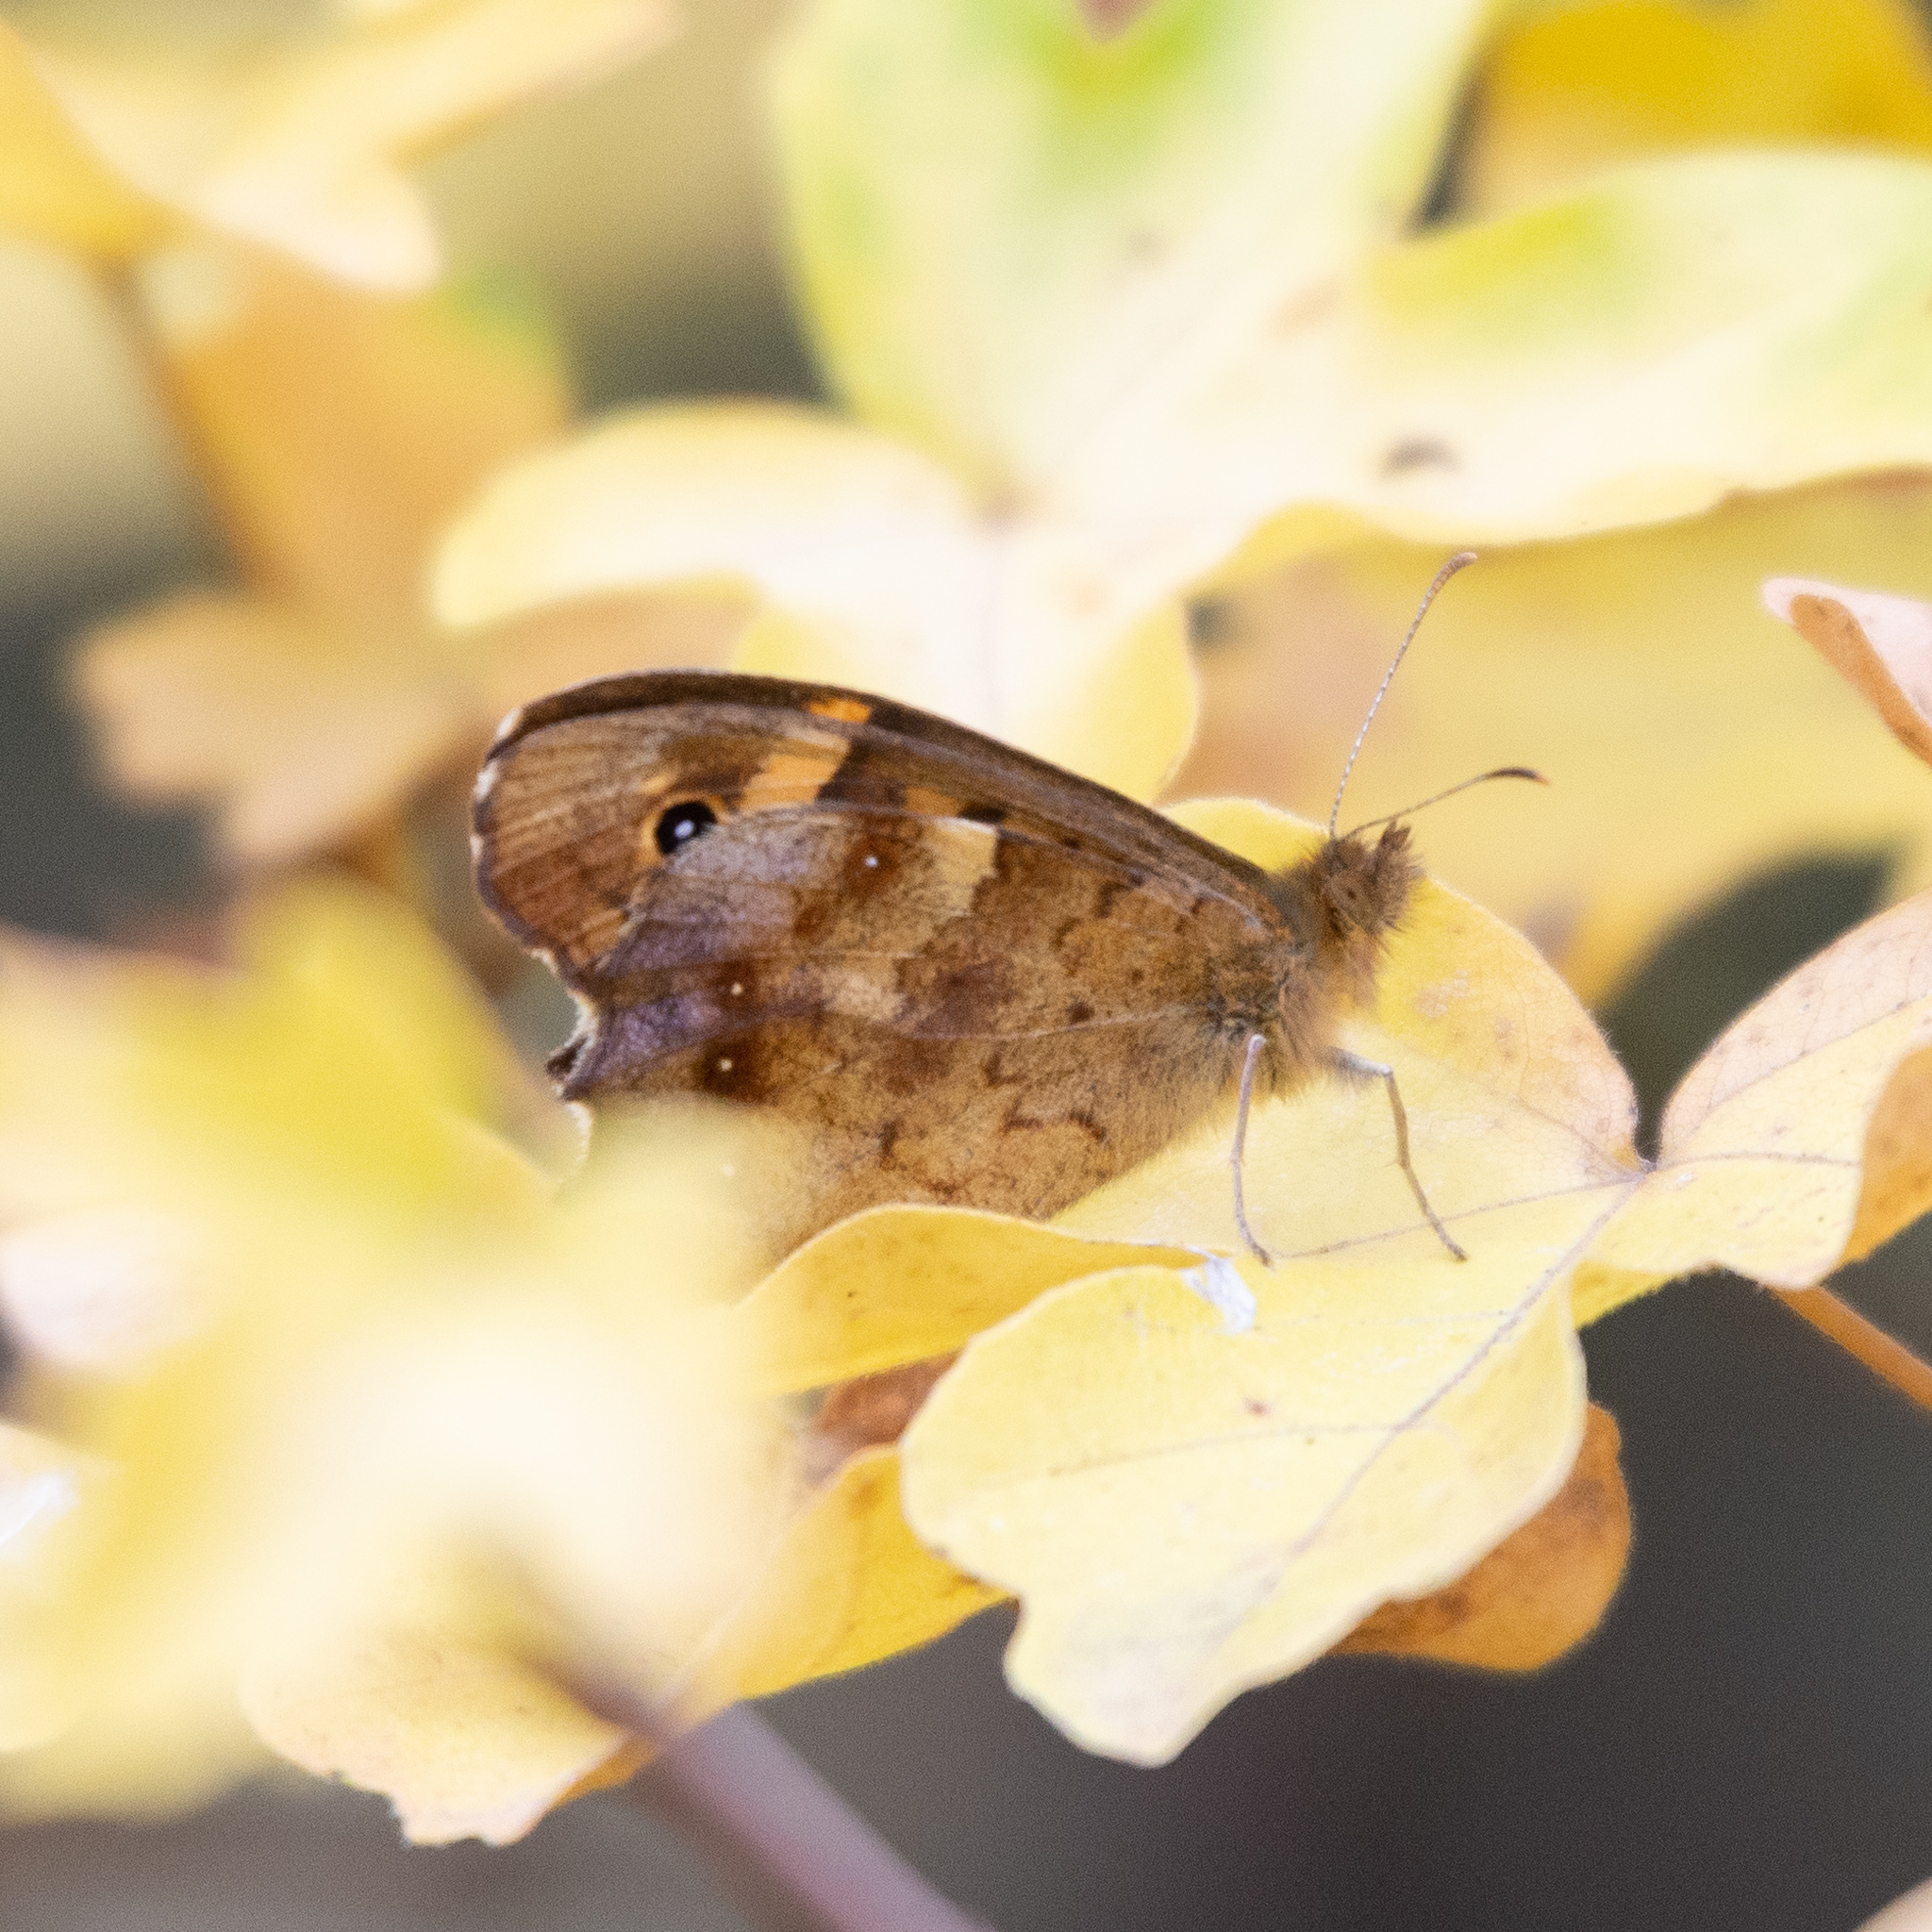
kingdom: Animalia
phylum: Arthropoda
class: Insecta
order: Lepidoptera
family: Nymphalidae
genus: Pararge
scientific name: Pararge aegeria
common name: Speckled wood
